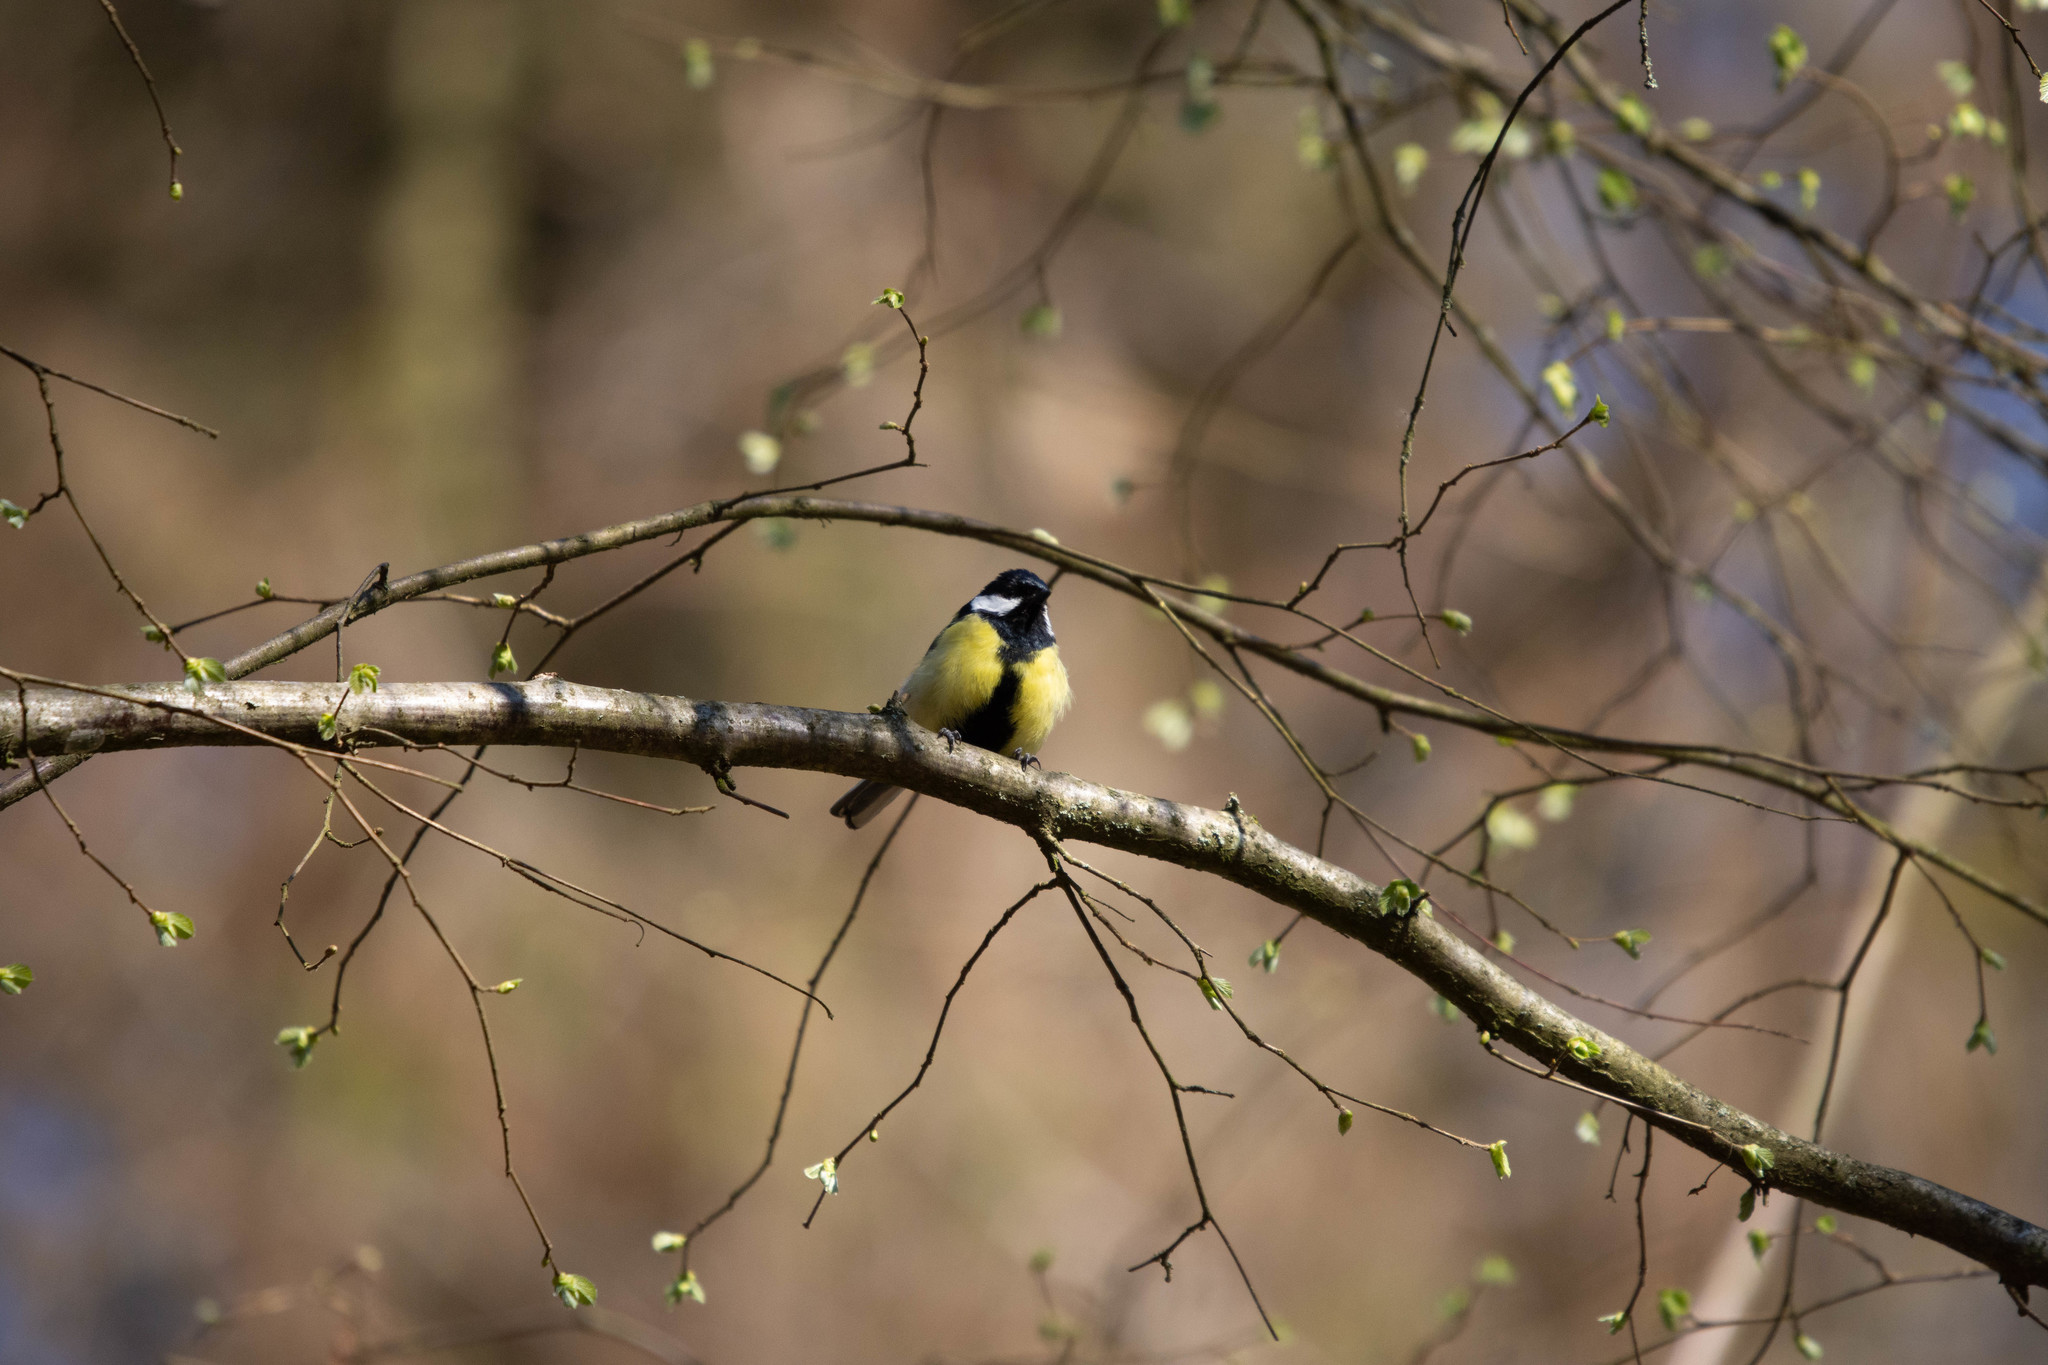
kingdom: Animalia
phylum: Chordata
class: Aves
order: Passeriformes
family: Paridae
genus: Parus
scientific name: Parus major
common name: Great tit
